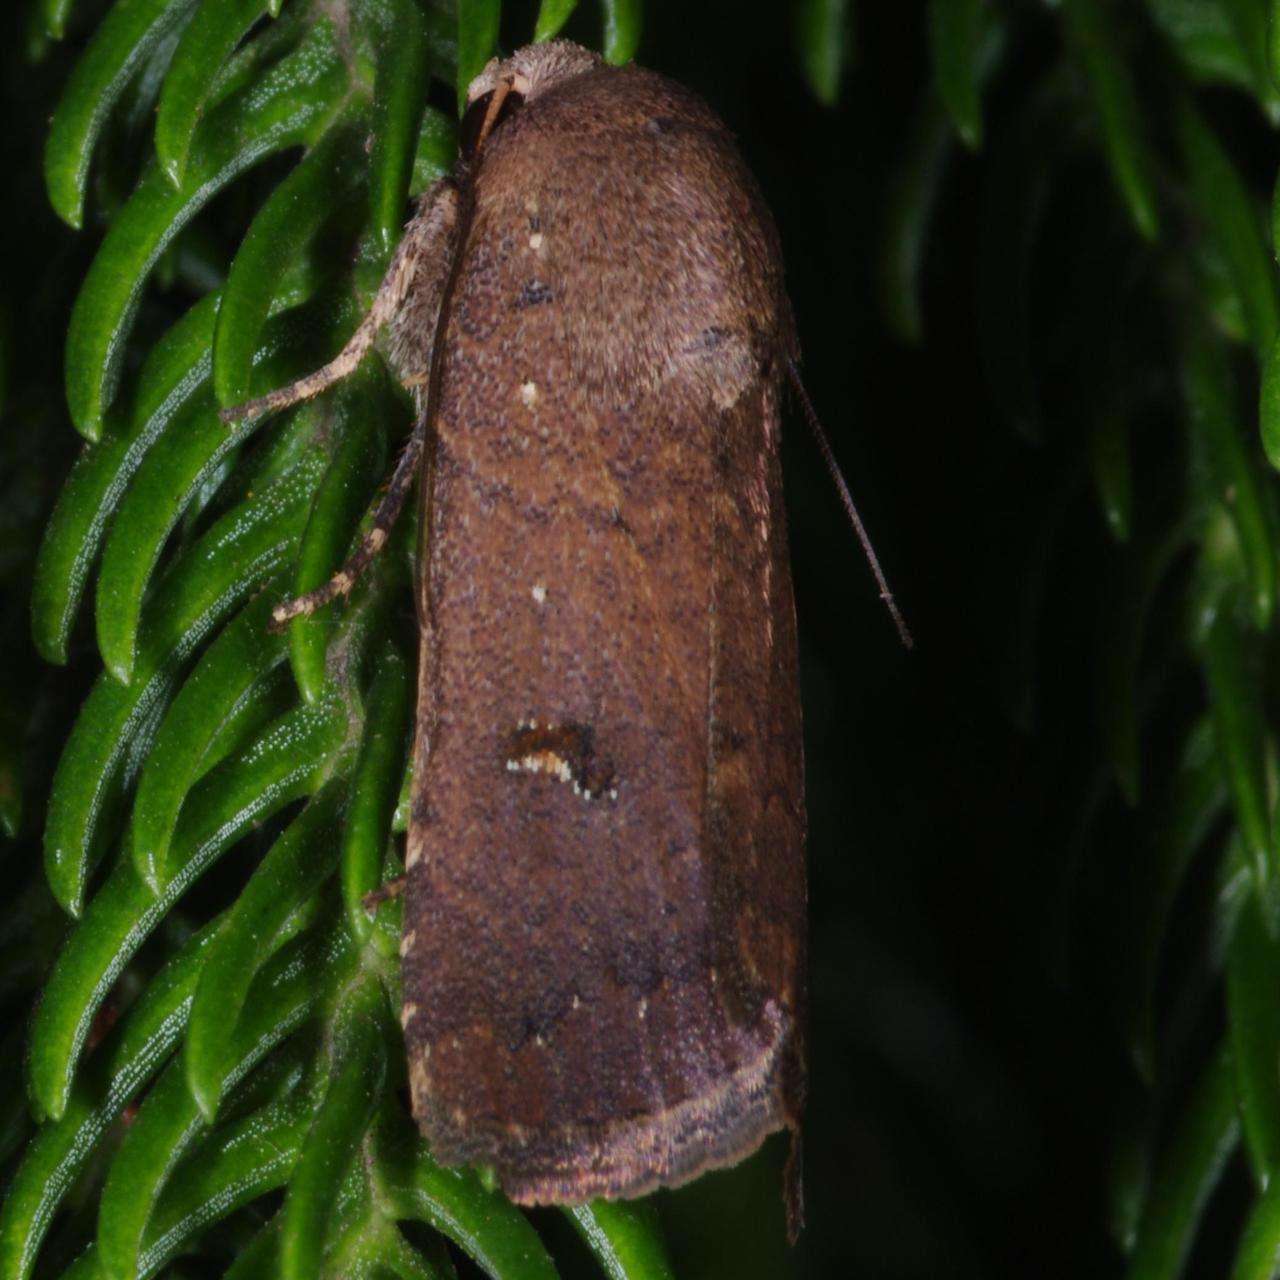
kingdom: Animalia
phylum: Arthropoda
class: Insecta
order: Lepidoptera
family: Noctuidae
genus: Proteuxoa
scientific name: Proteuxoa hypochalchis
